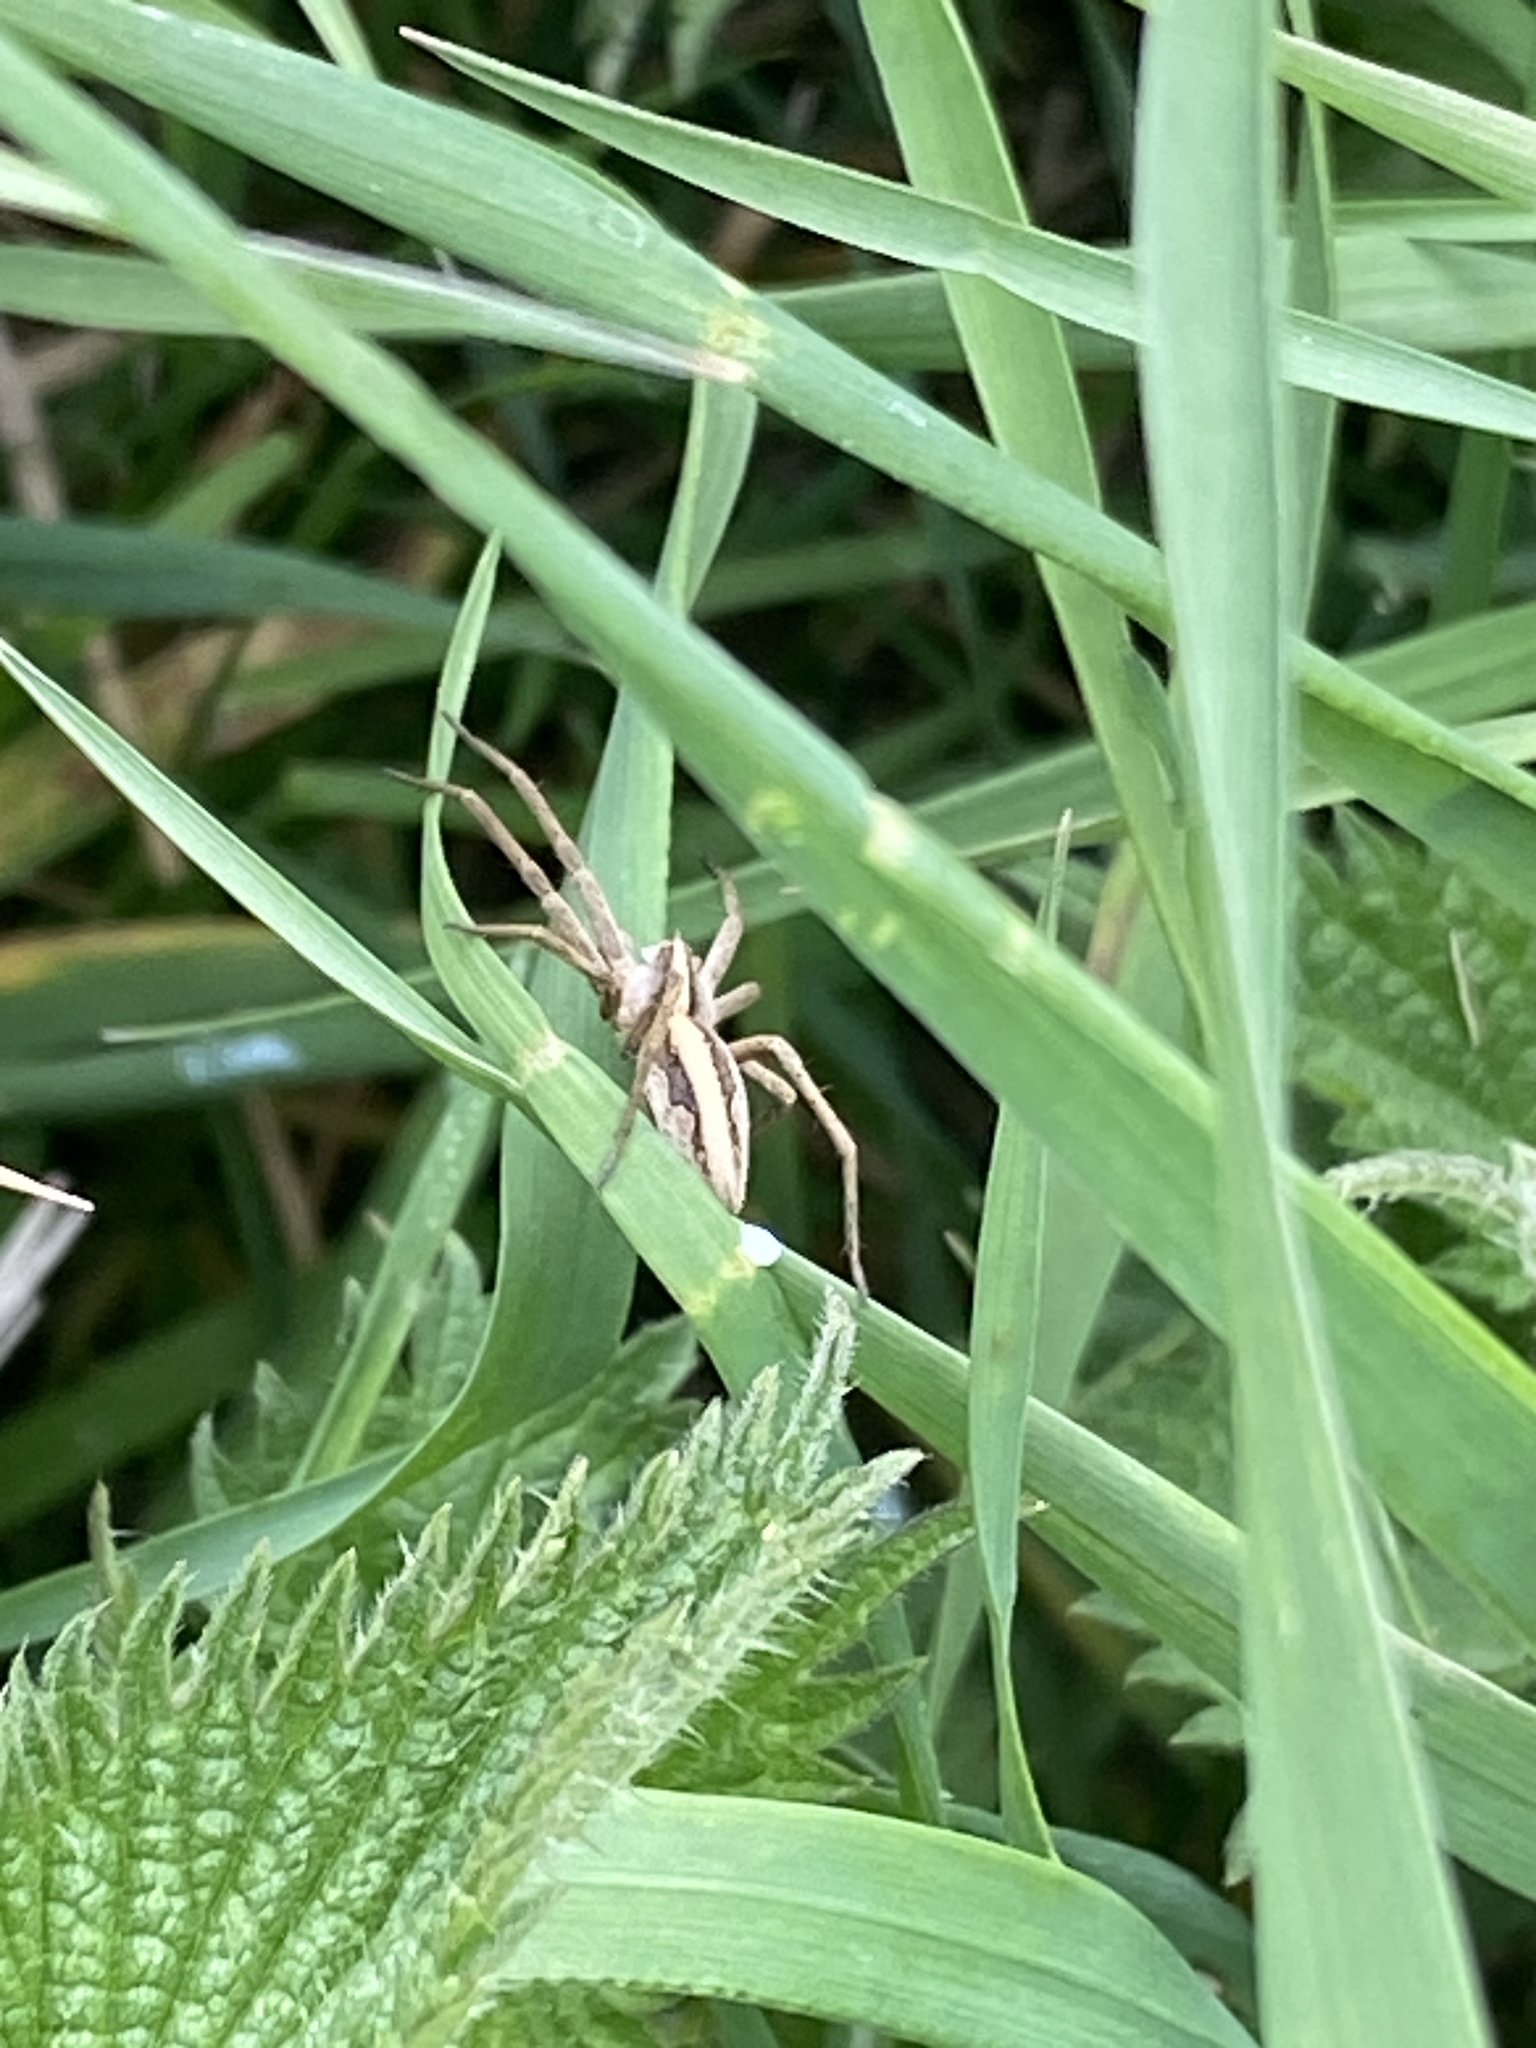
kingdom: Animalia
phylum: Arthropoda
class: Arachnida
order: Araneae
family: Pisauridae
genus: Pisaura
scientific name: Pisaura mirabilis
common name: Tent spider
